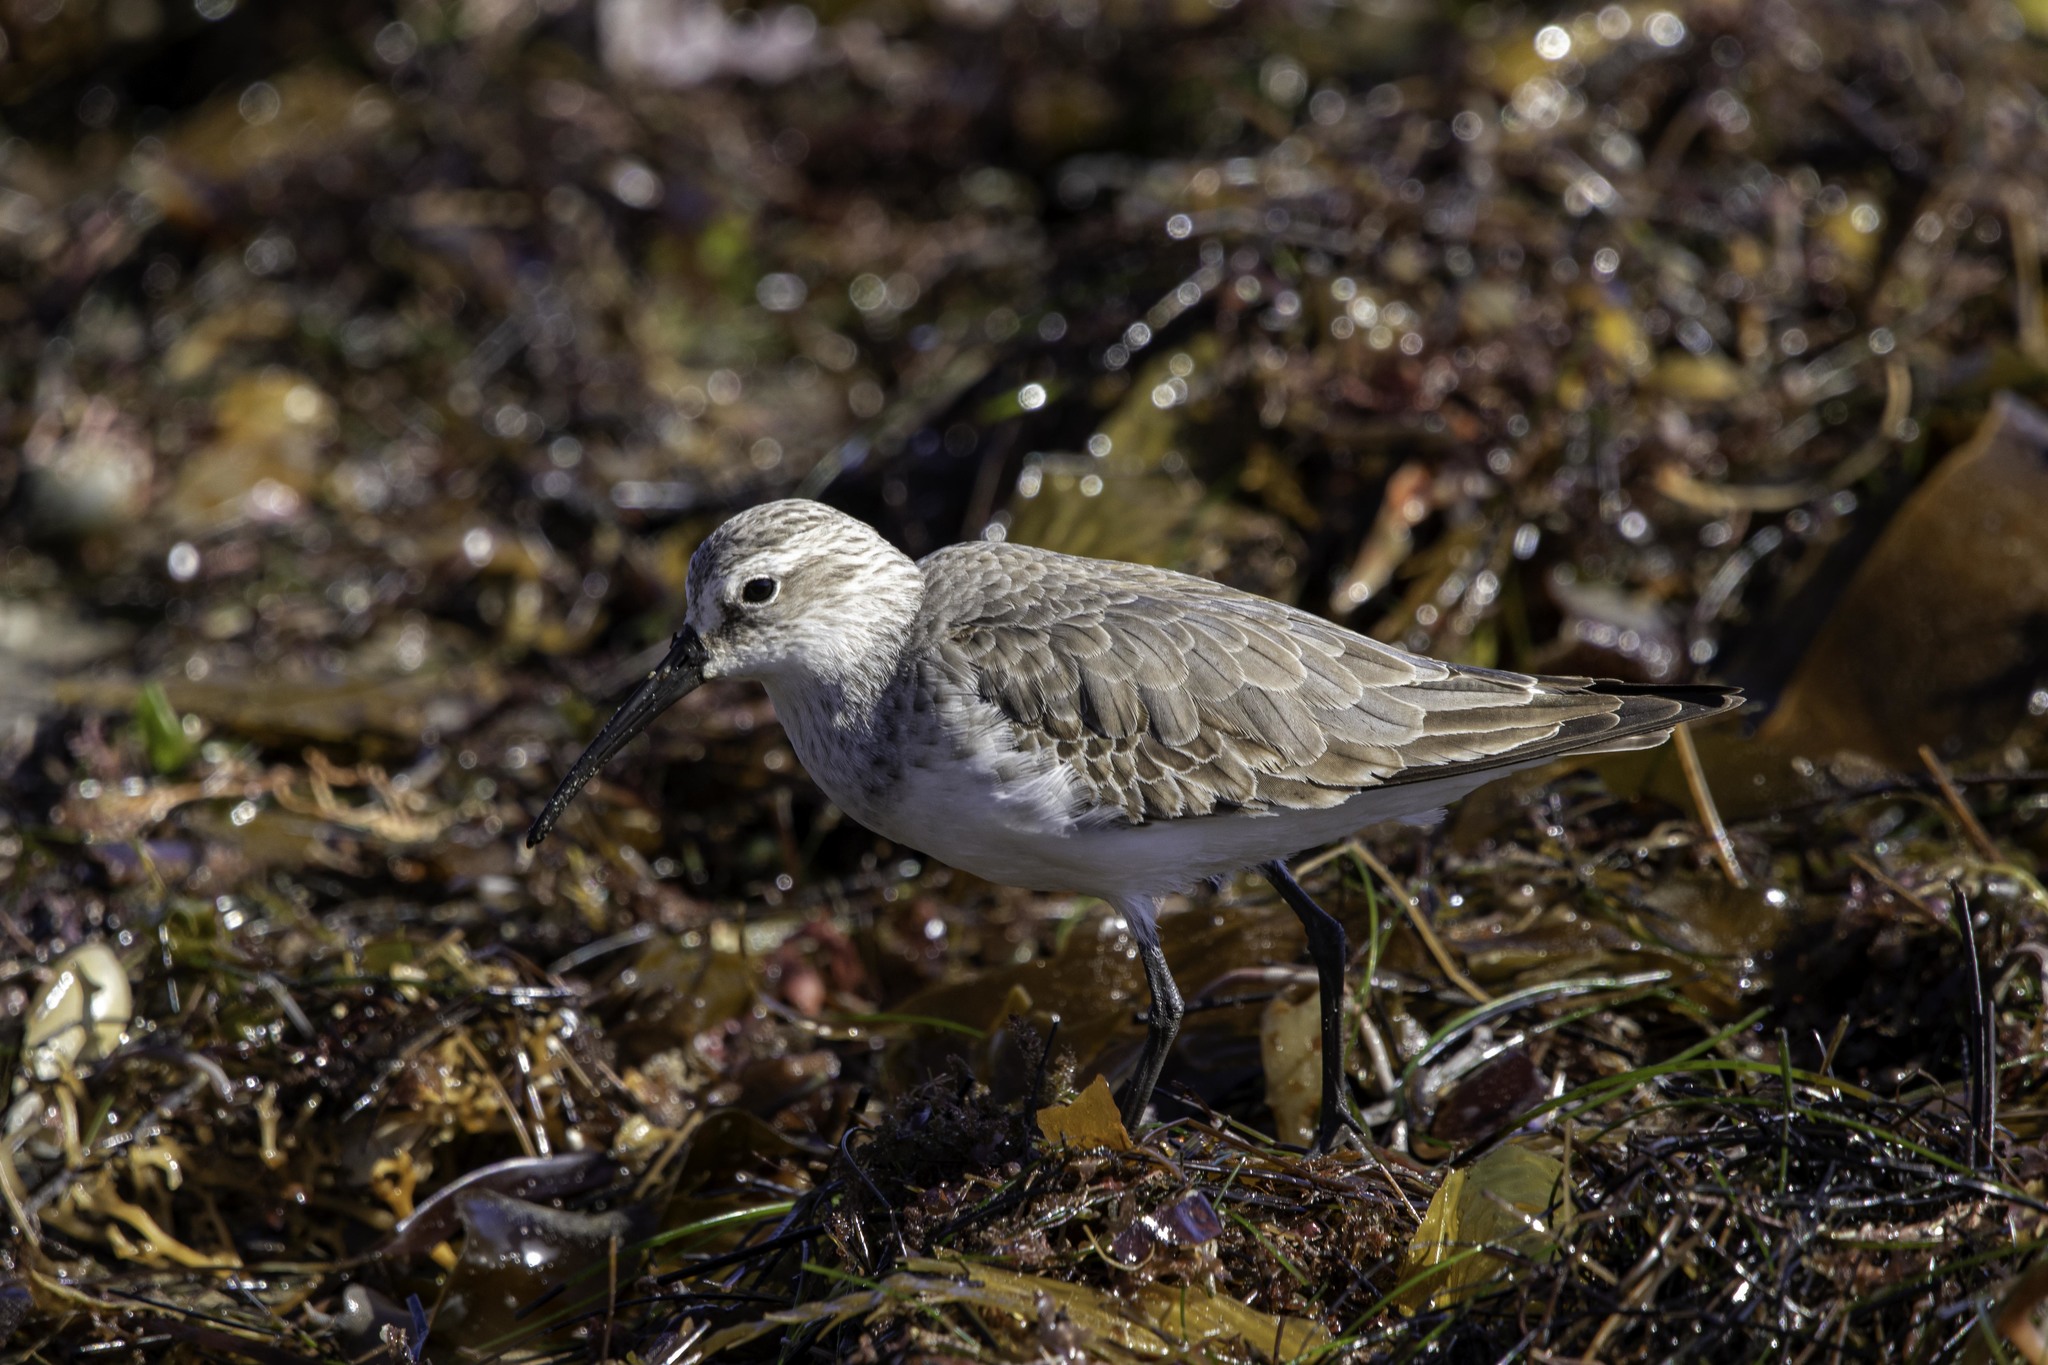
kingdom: Animalia
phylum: Chordata
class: Aves
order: Charadriiformes
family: Scolopacidae
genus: Calidris
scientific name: Calidris ferruginea
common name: Curlew sandpiper
